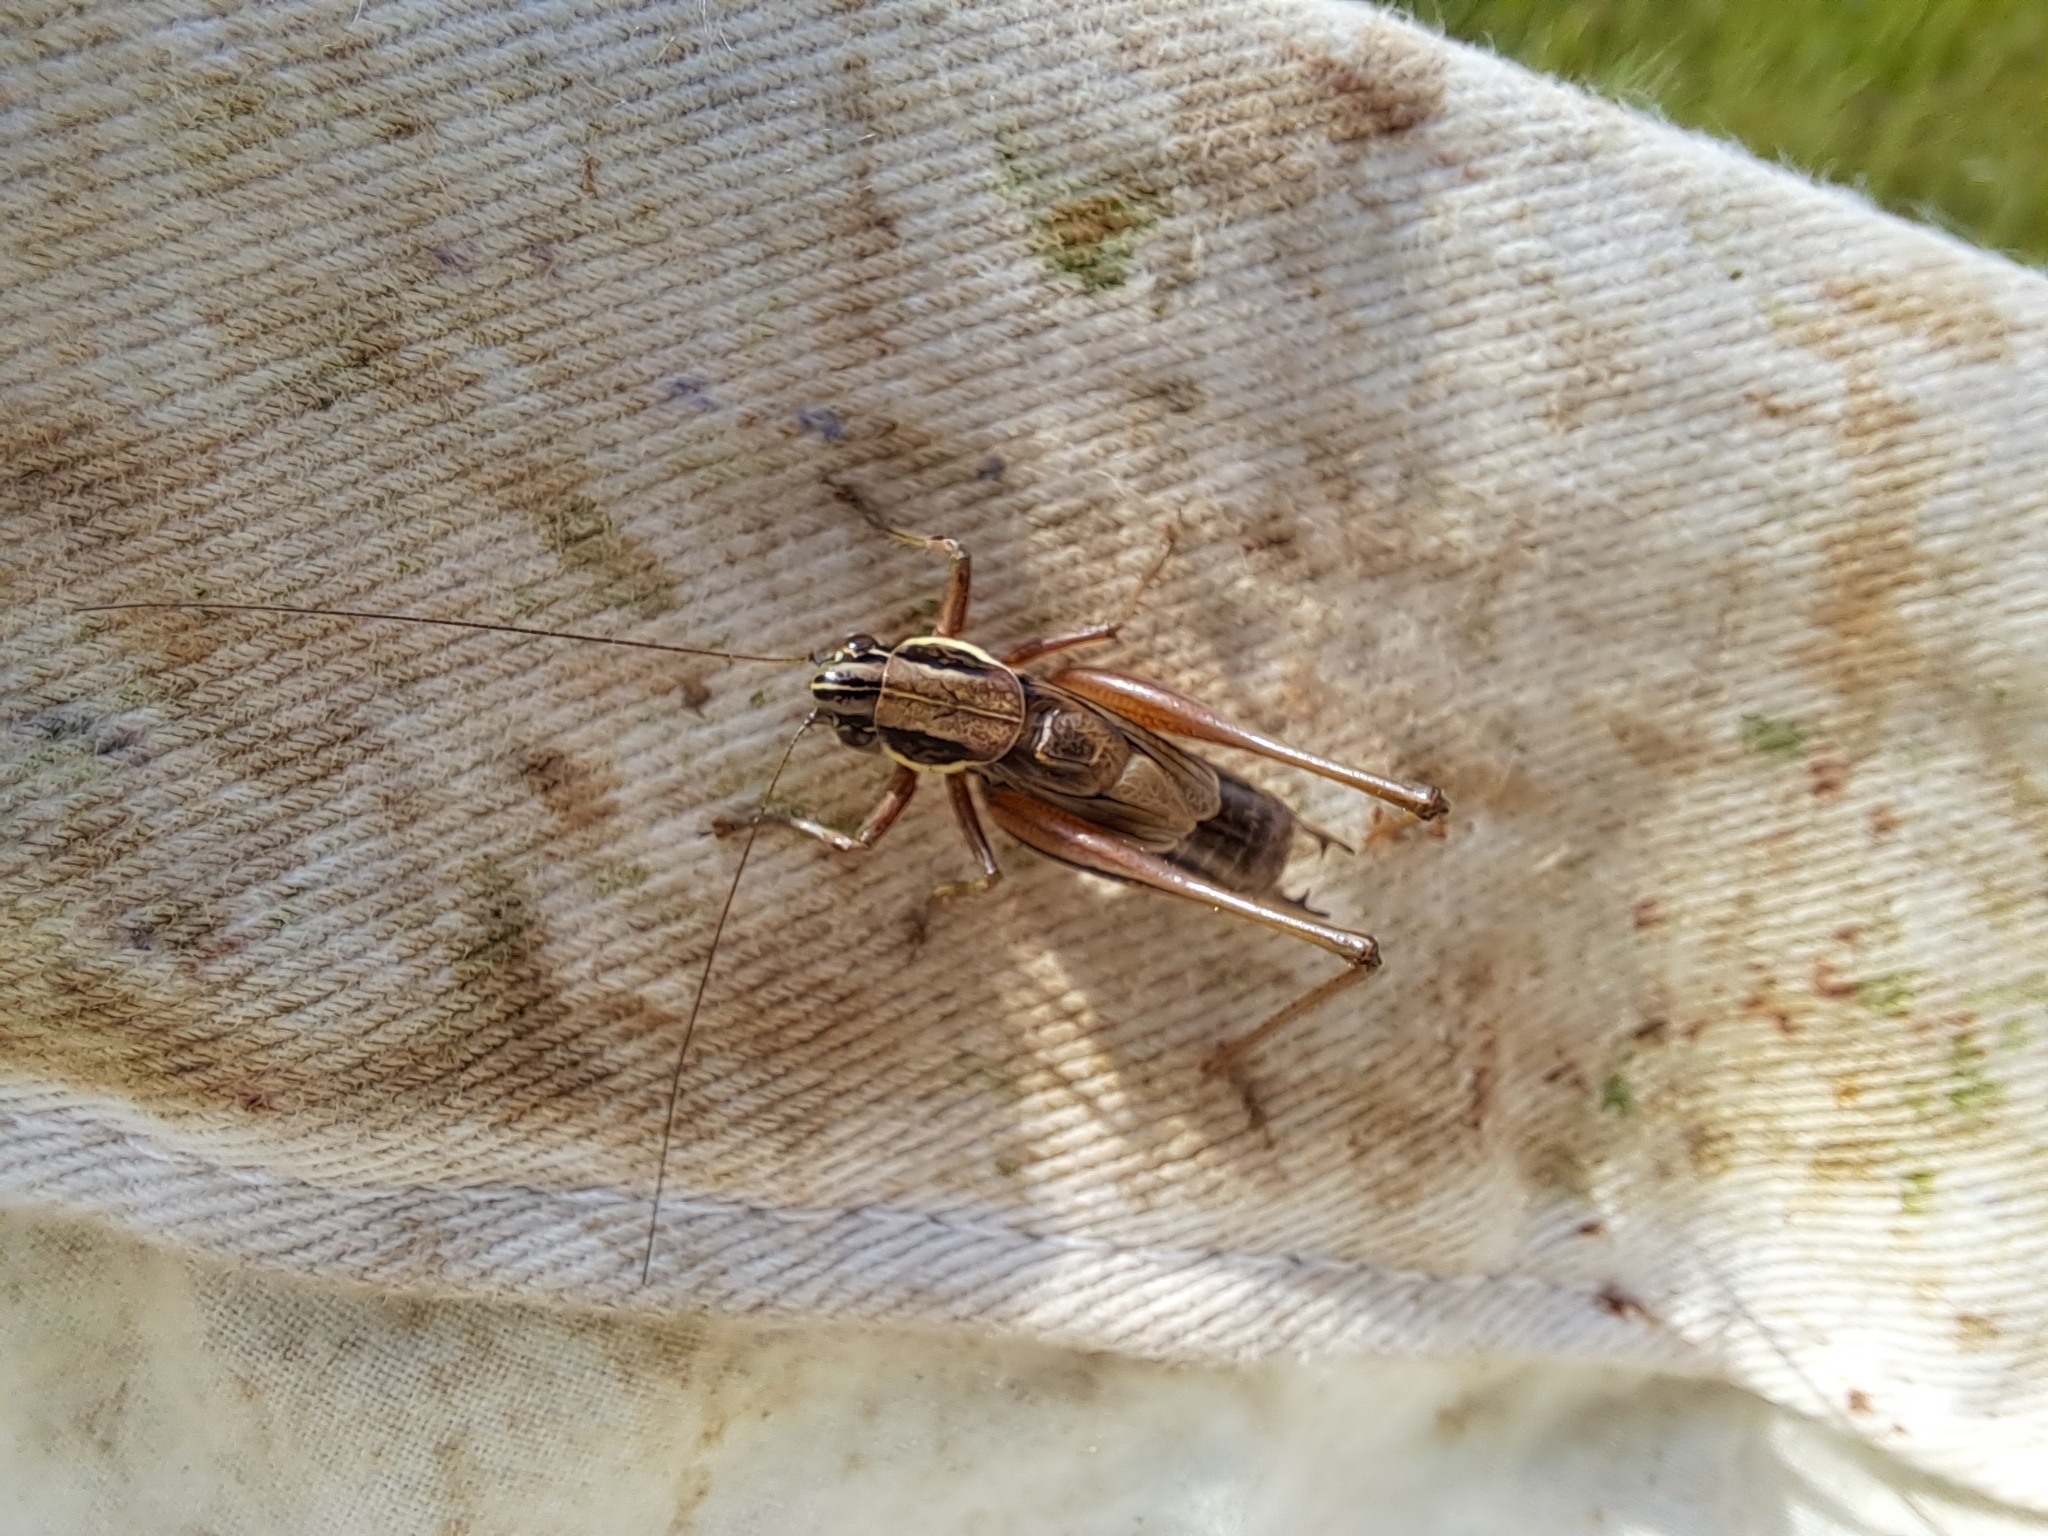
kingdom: Animalia
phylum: Arthropoda
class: Insecta
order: Orthoptera
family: Tettigoniidae
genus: Roeseliana
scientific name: Roeseliana roeselii
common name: Roesel's bush cricket
